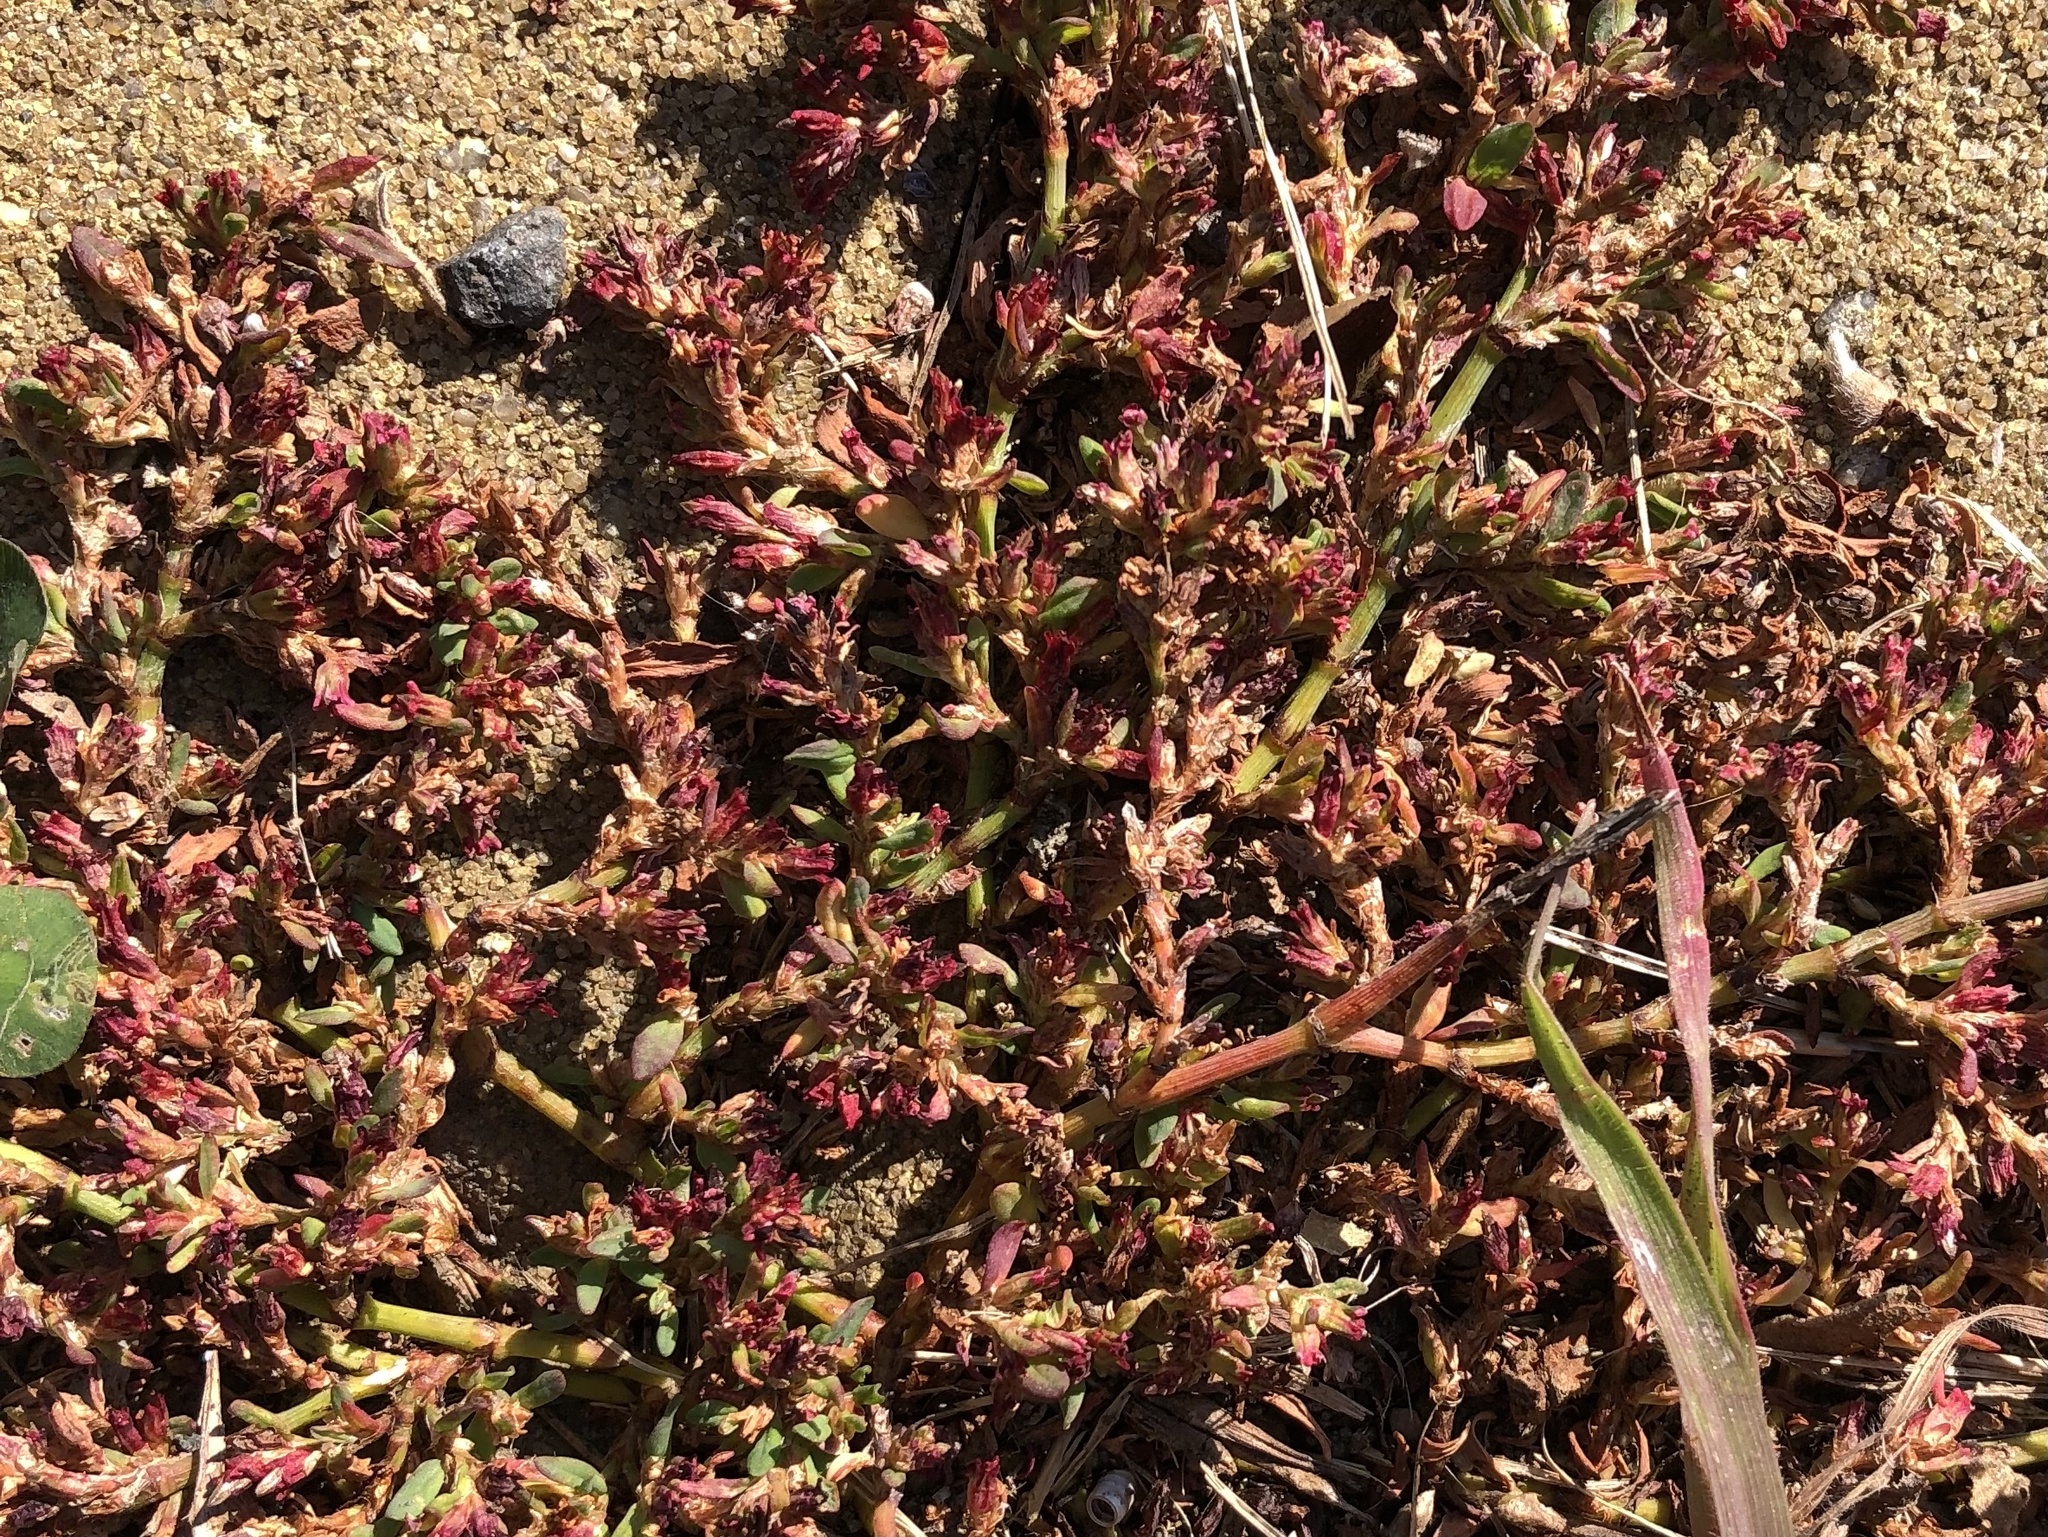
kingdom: Plantae
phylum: Tracheophyta
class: Magnoliopsida
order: Caryophyllales
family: Polygonaceae
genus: Polygonum
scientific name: Polygonum arenastrum
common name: Equal-leaved knotgrass
